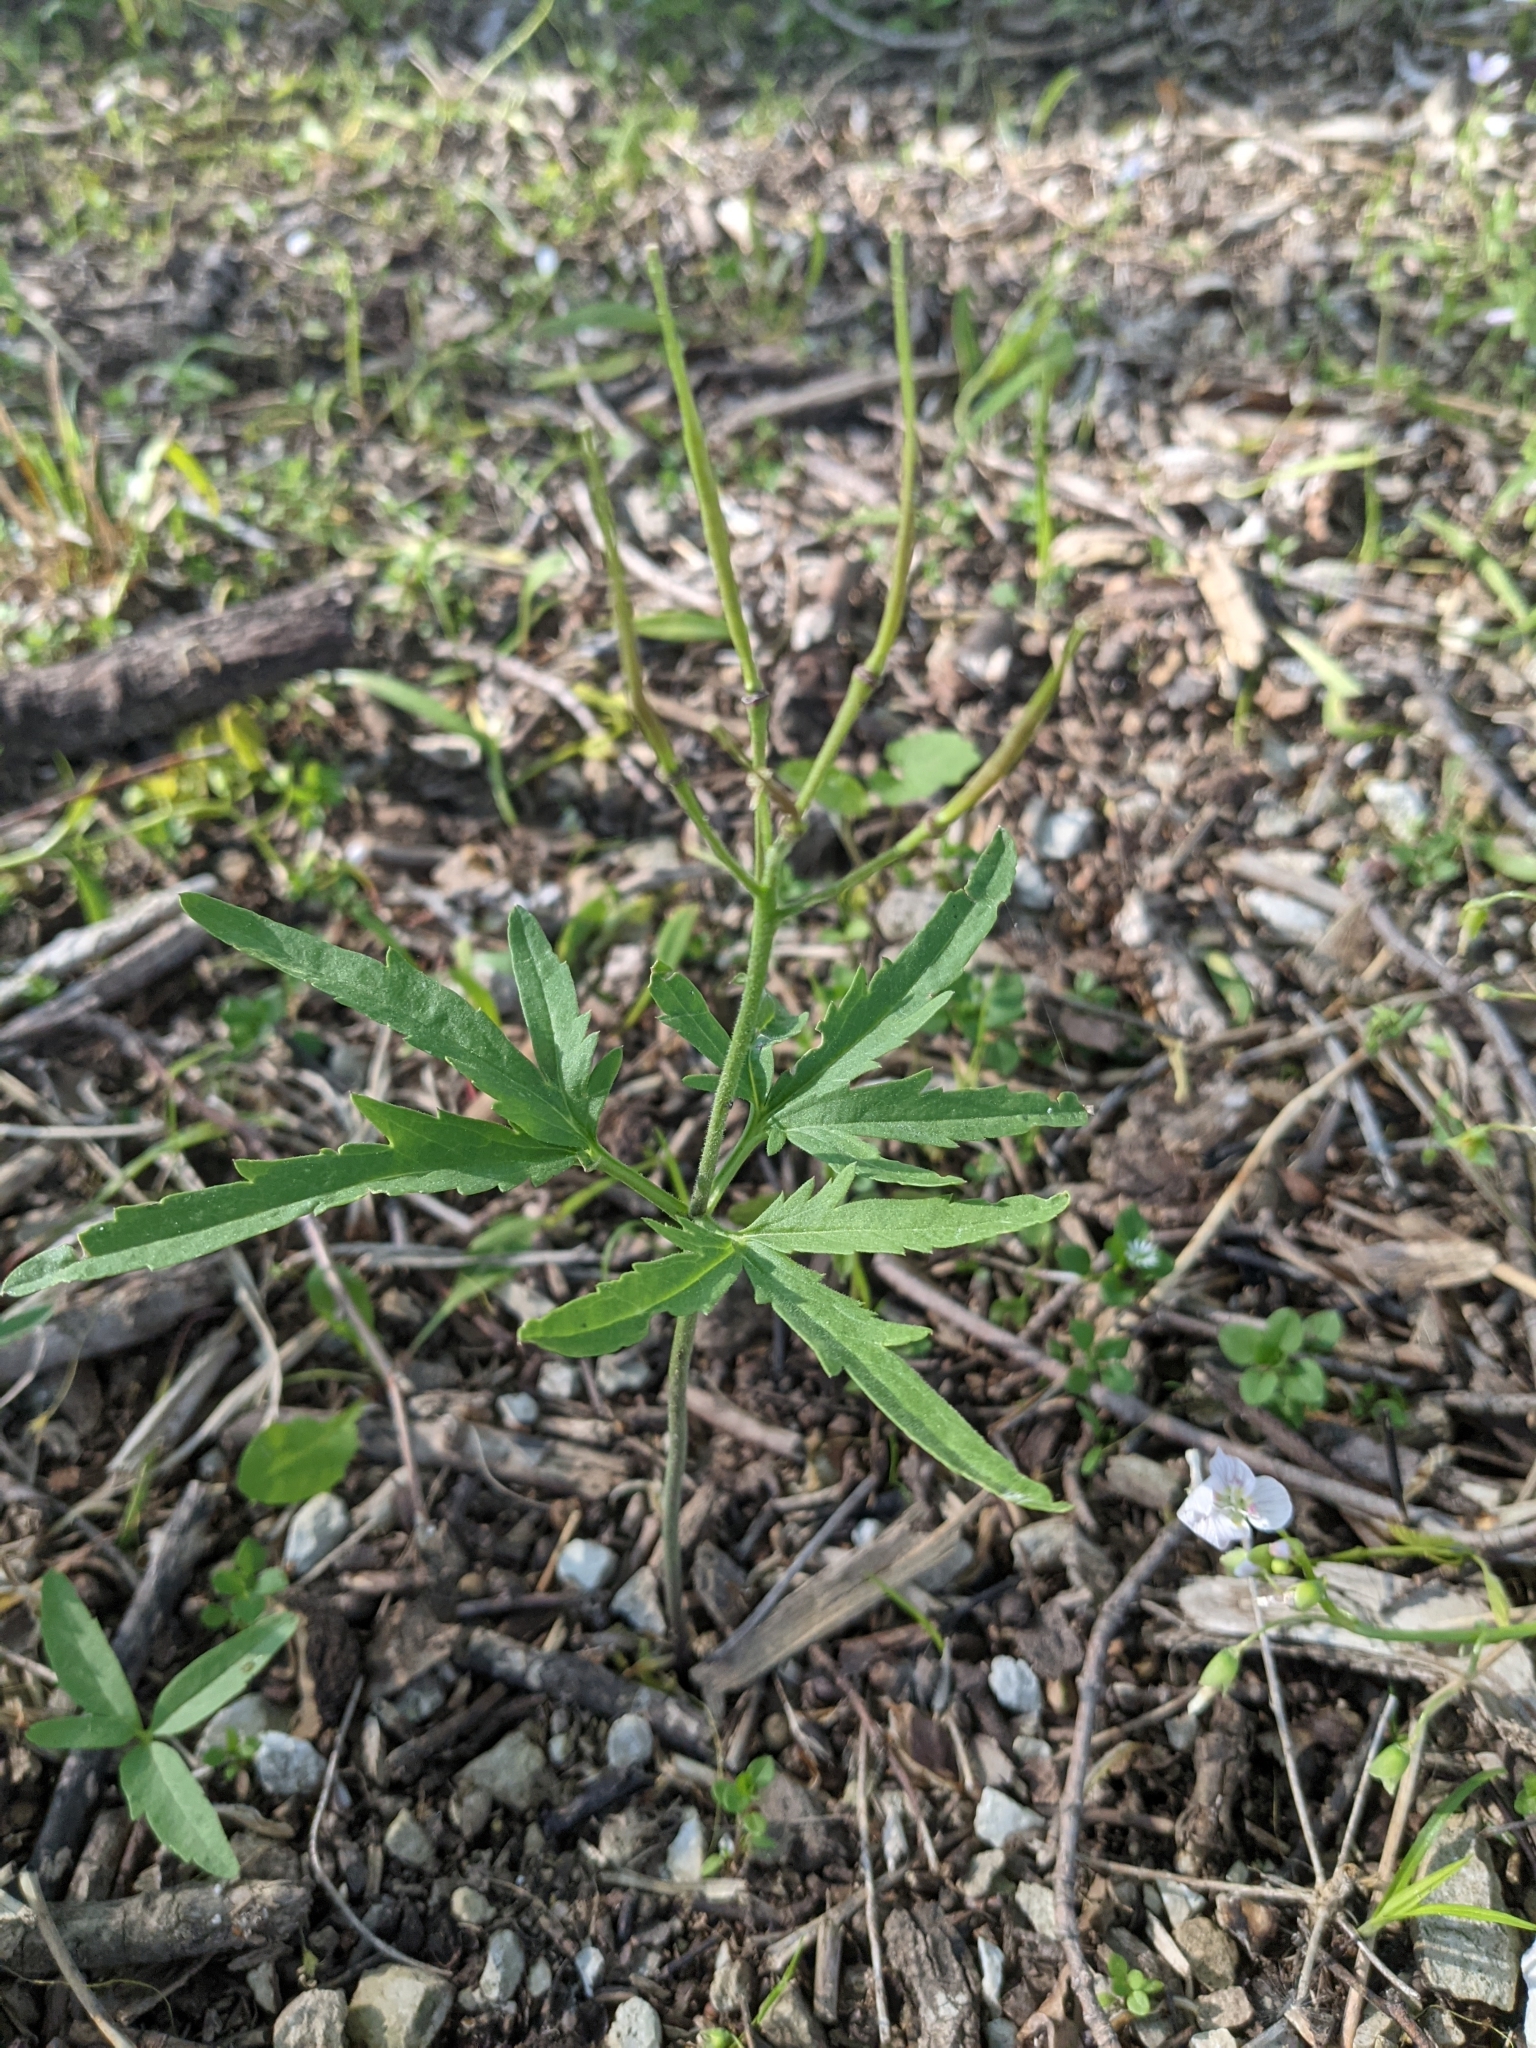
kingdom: Plantae
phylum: Tracheophyta
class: Magnoliopsida
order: Brassicales
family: Brassicaceae
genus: Cardamine
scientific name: Cardamine concatenata
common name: Cut-leaf toothcup
